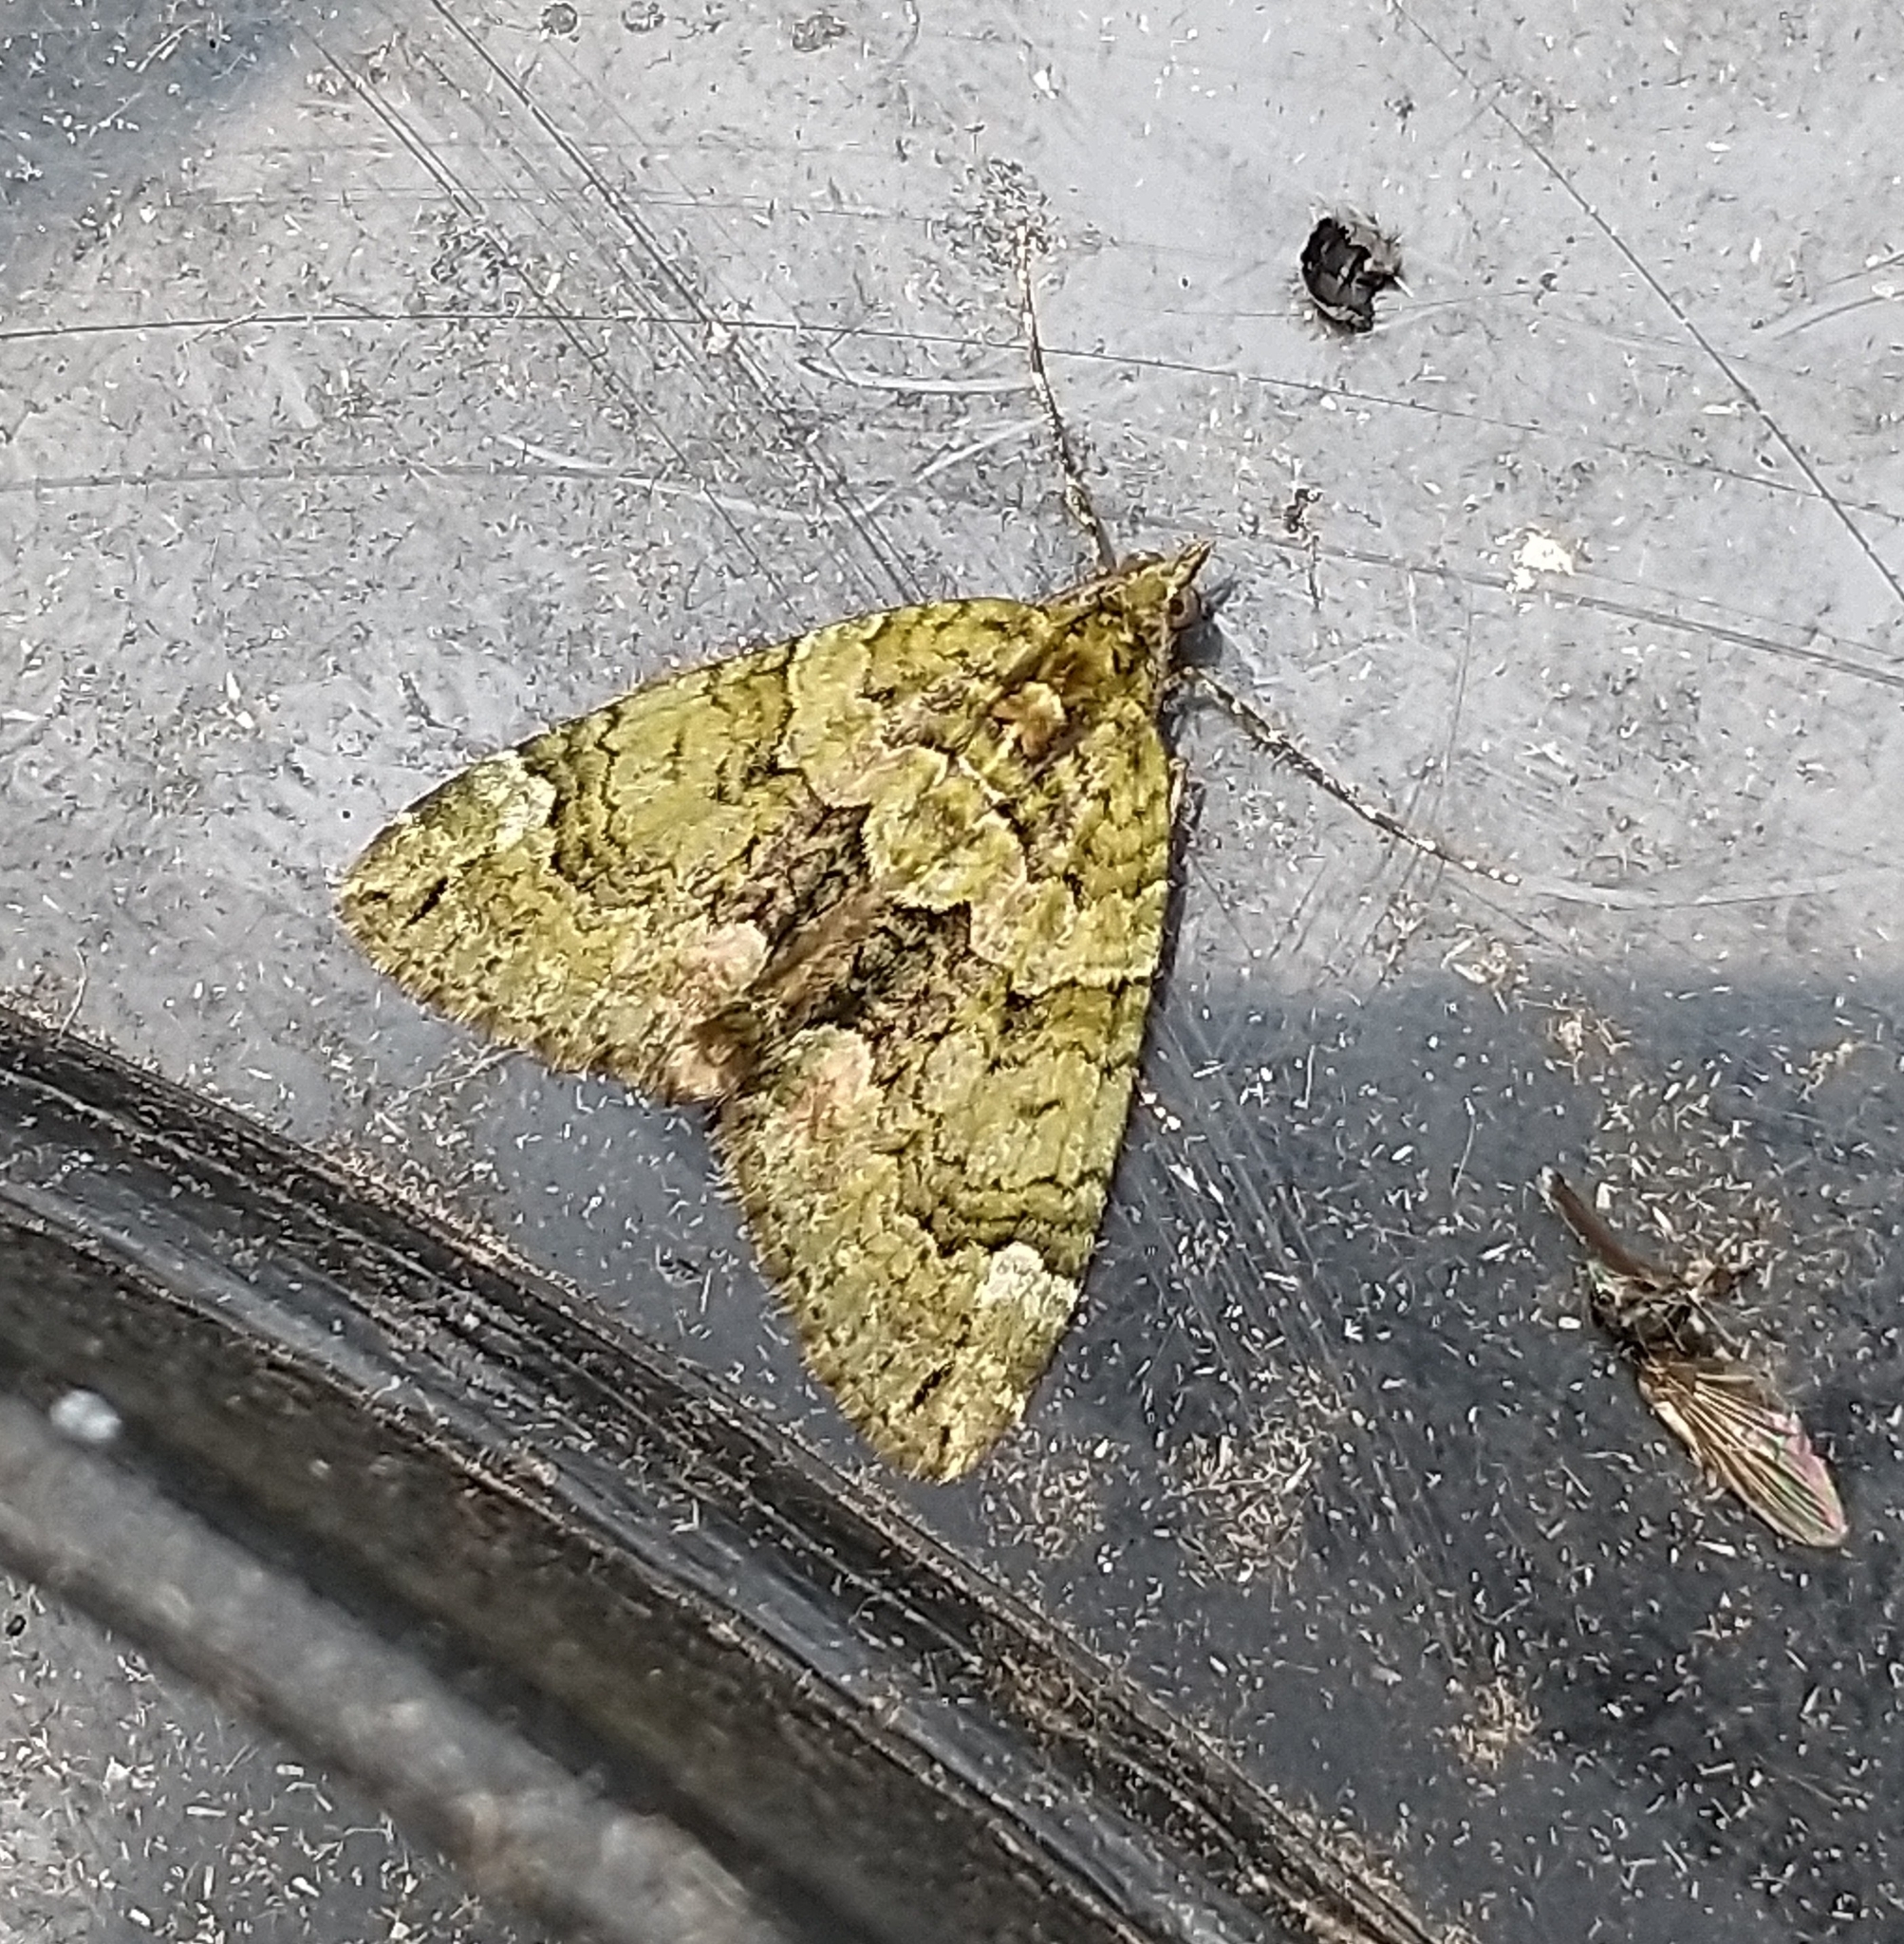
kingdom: Animalia
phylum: Arthropoda
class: Insecta
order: Lepidoptera
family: Geometridae
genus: Chloroclysta
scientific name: Chloroclysta siterata
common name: Red-green carpet
